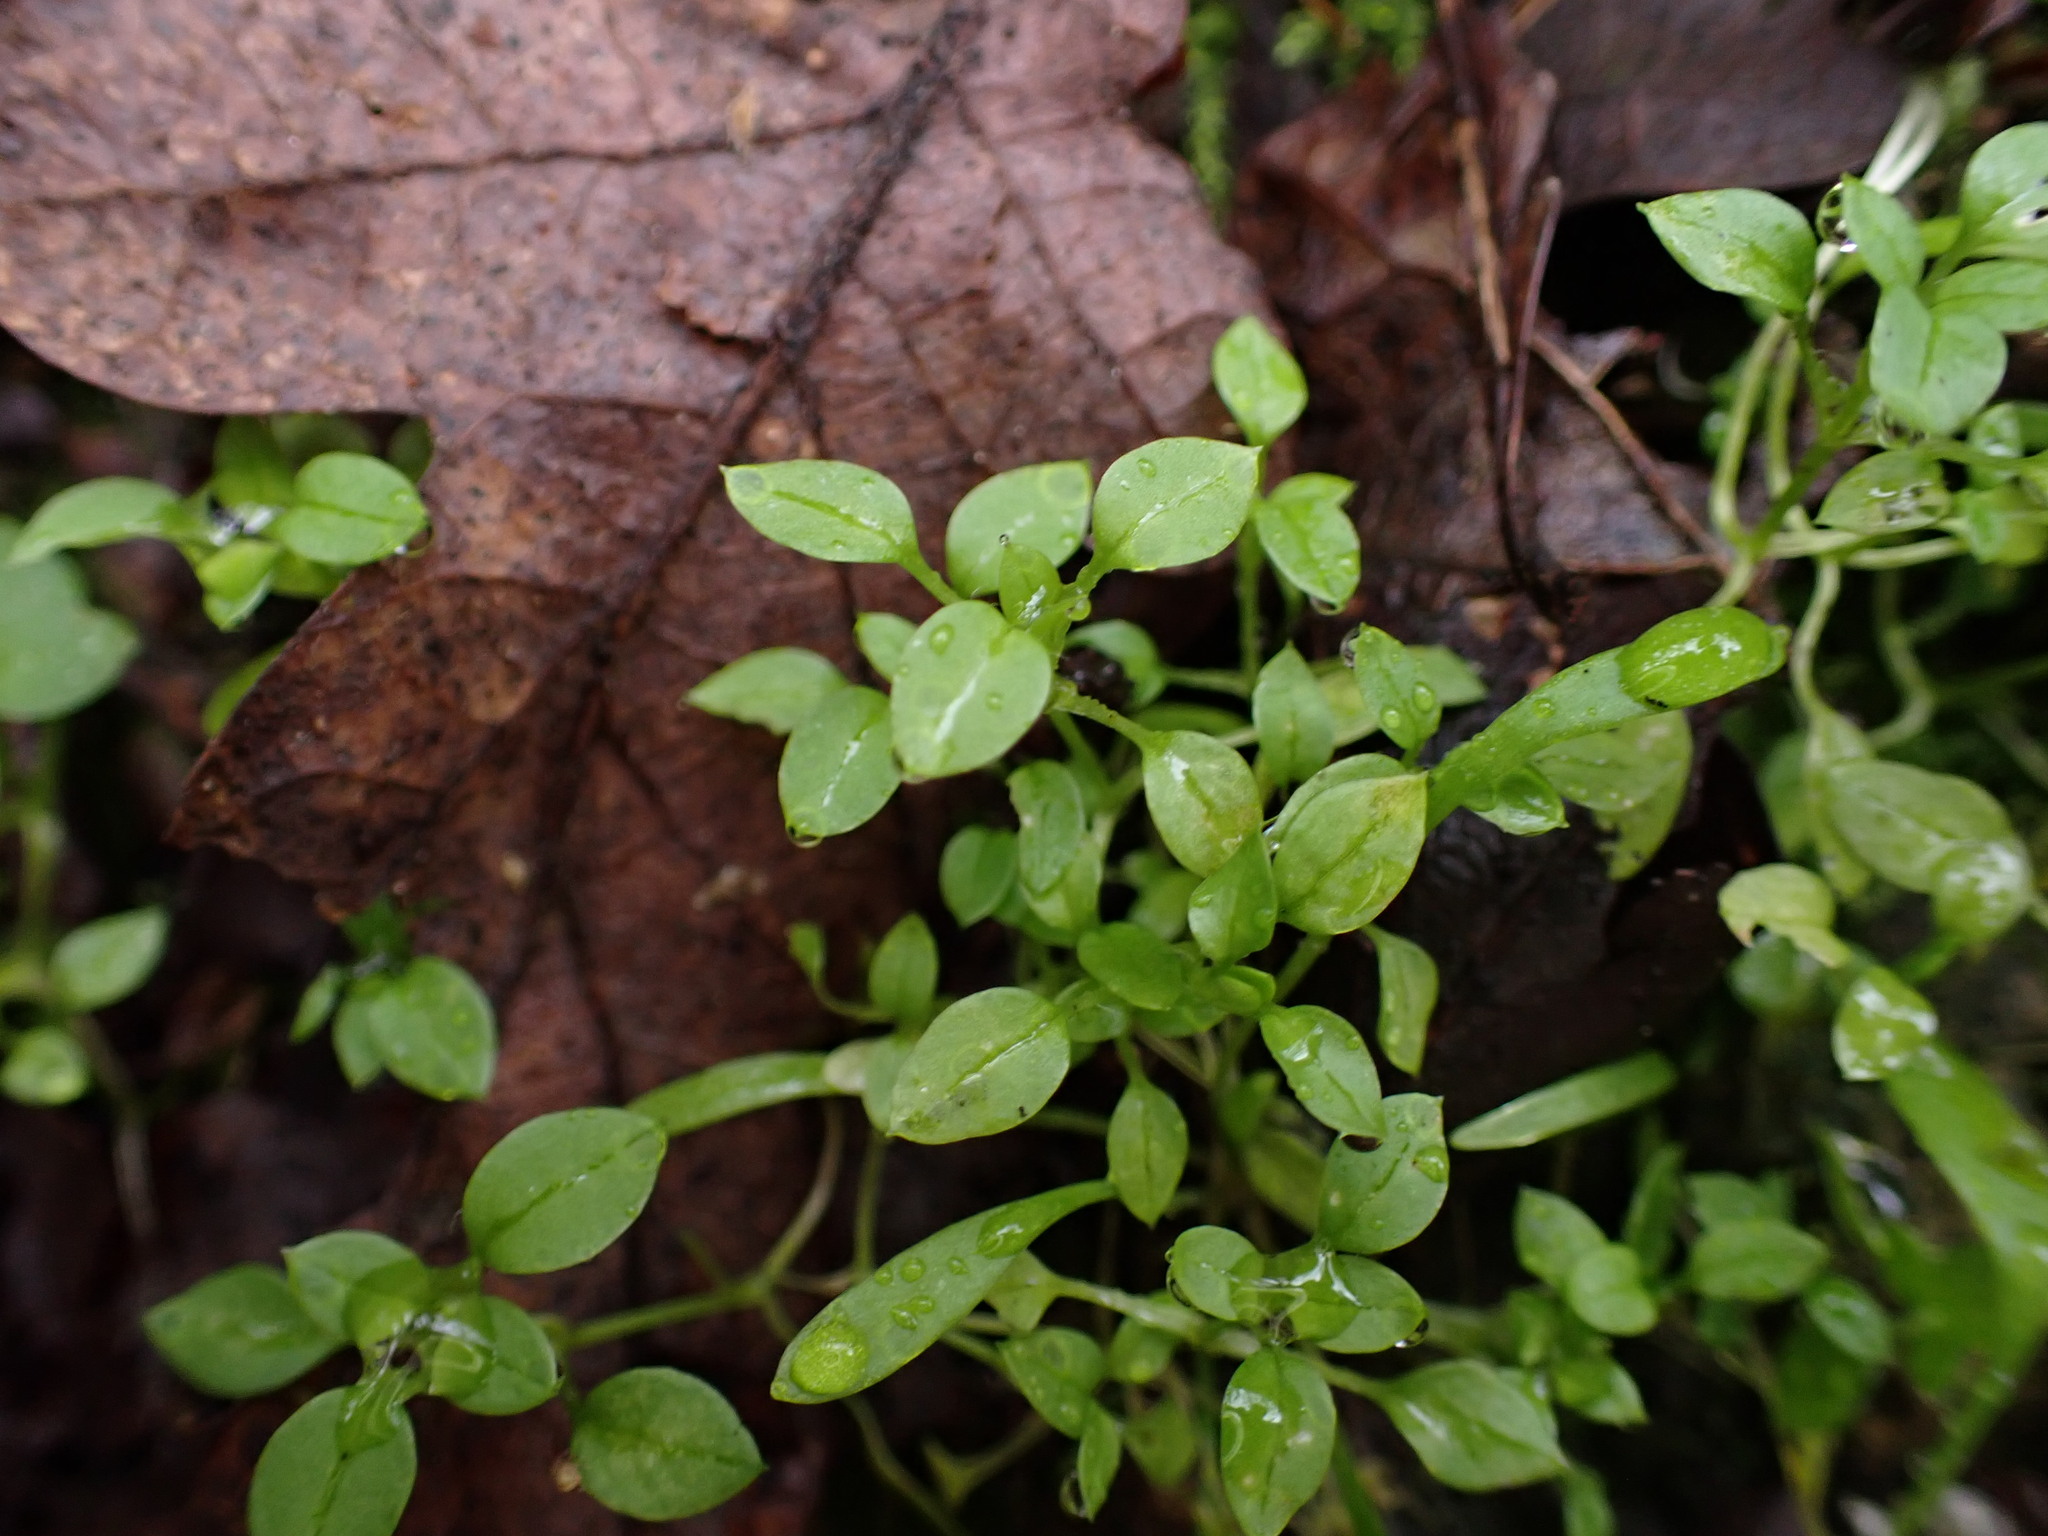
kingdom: Plantae
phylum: Tracheophyta
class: Magnoliopsida
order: Caryophyllales
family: Caryophyllaceae
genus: Stellaria
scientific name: Stellaria media
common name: Common chickweed
